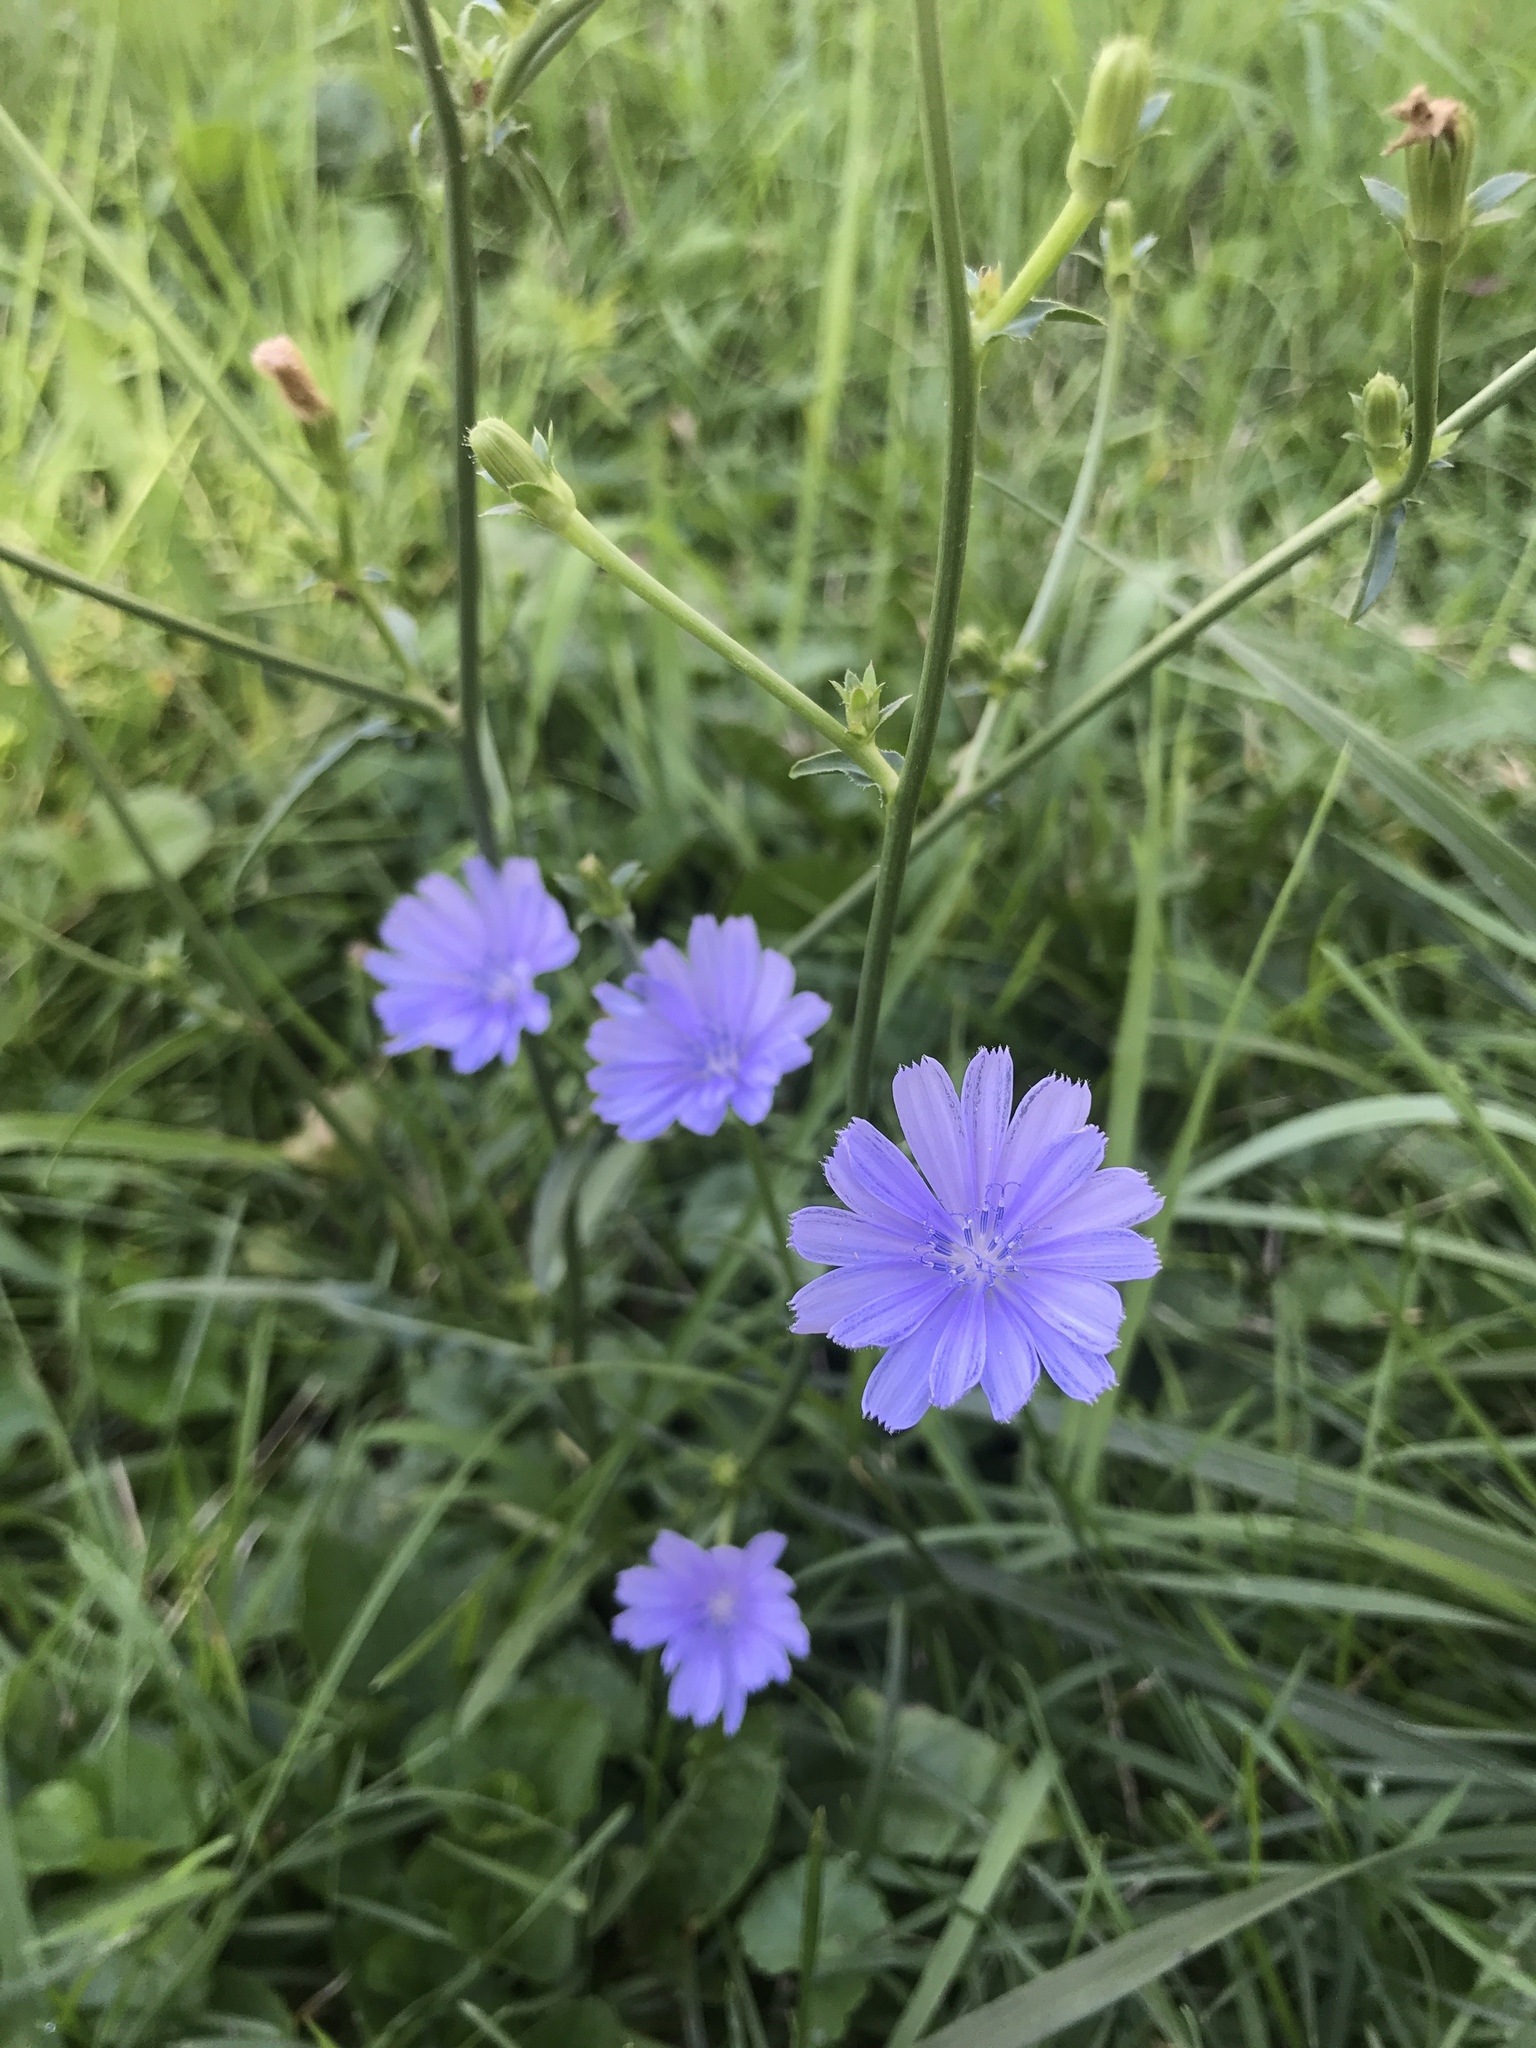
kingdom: Plantae
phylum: Tracheophyta
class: Magnoliopsida
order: Asterales
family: Asteraceae
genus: Cichorium
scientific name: Cichorium intybus
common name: Chicory
